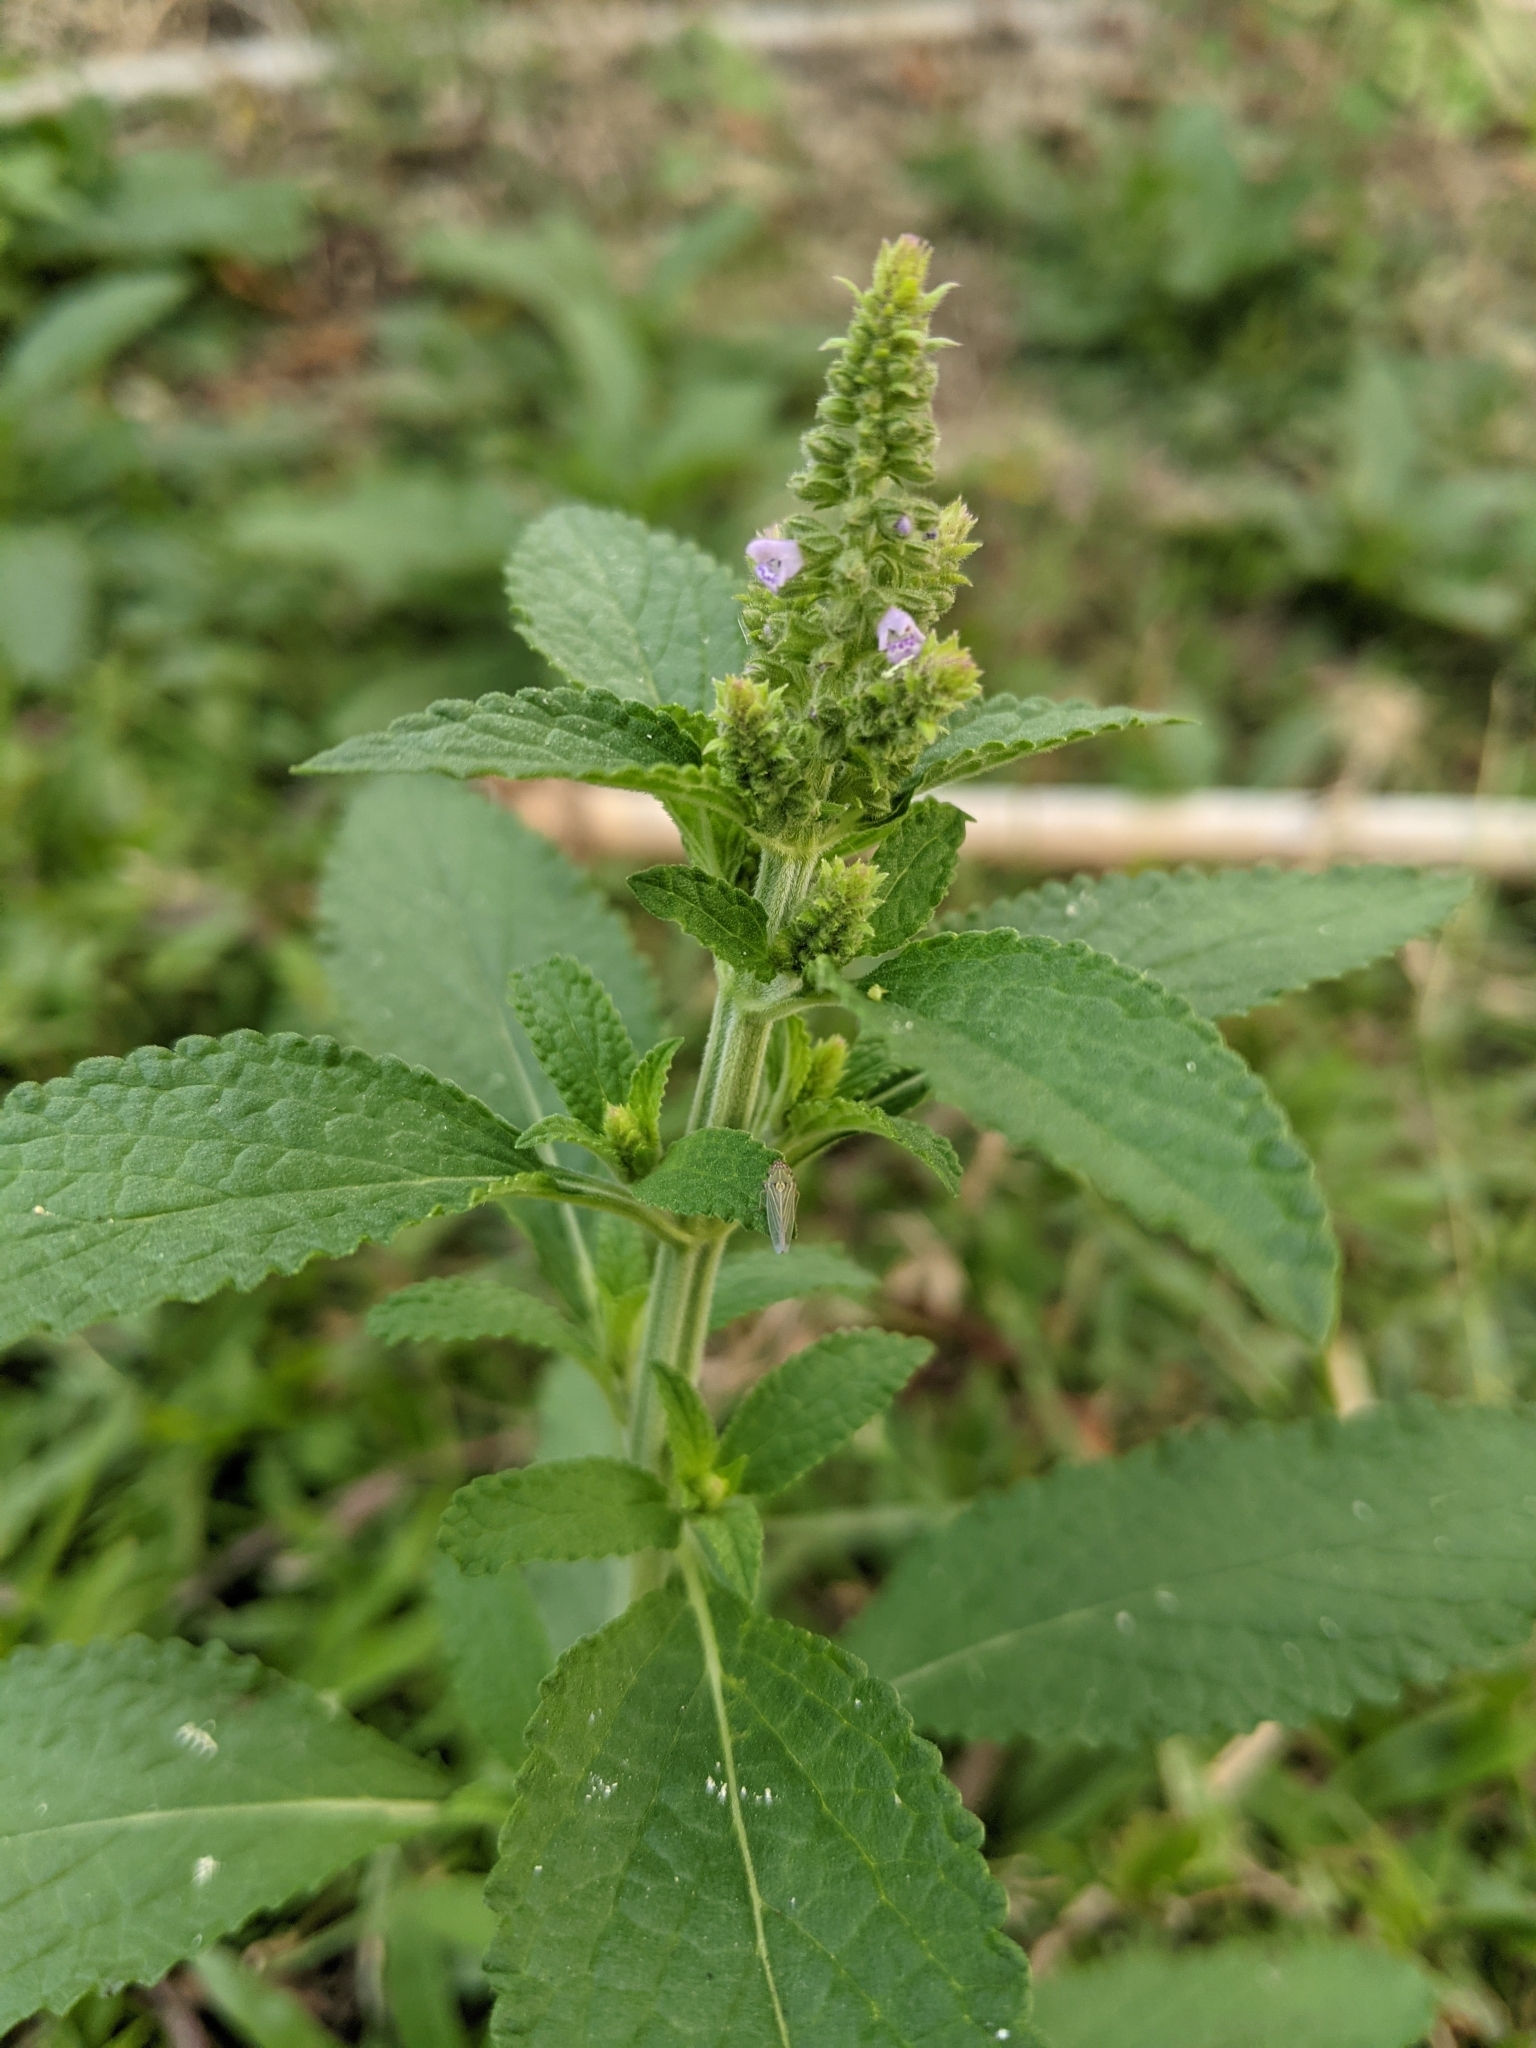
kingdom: Plantae
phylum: Tracheophyta
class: Magnoliopsida
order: Lamiales
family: Lamiaceae
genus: Salvia
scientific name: Salvia plebeia
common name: Australian sage
